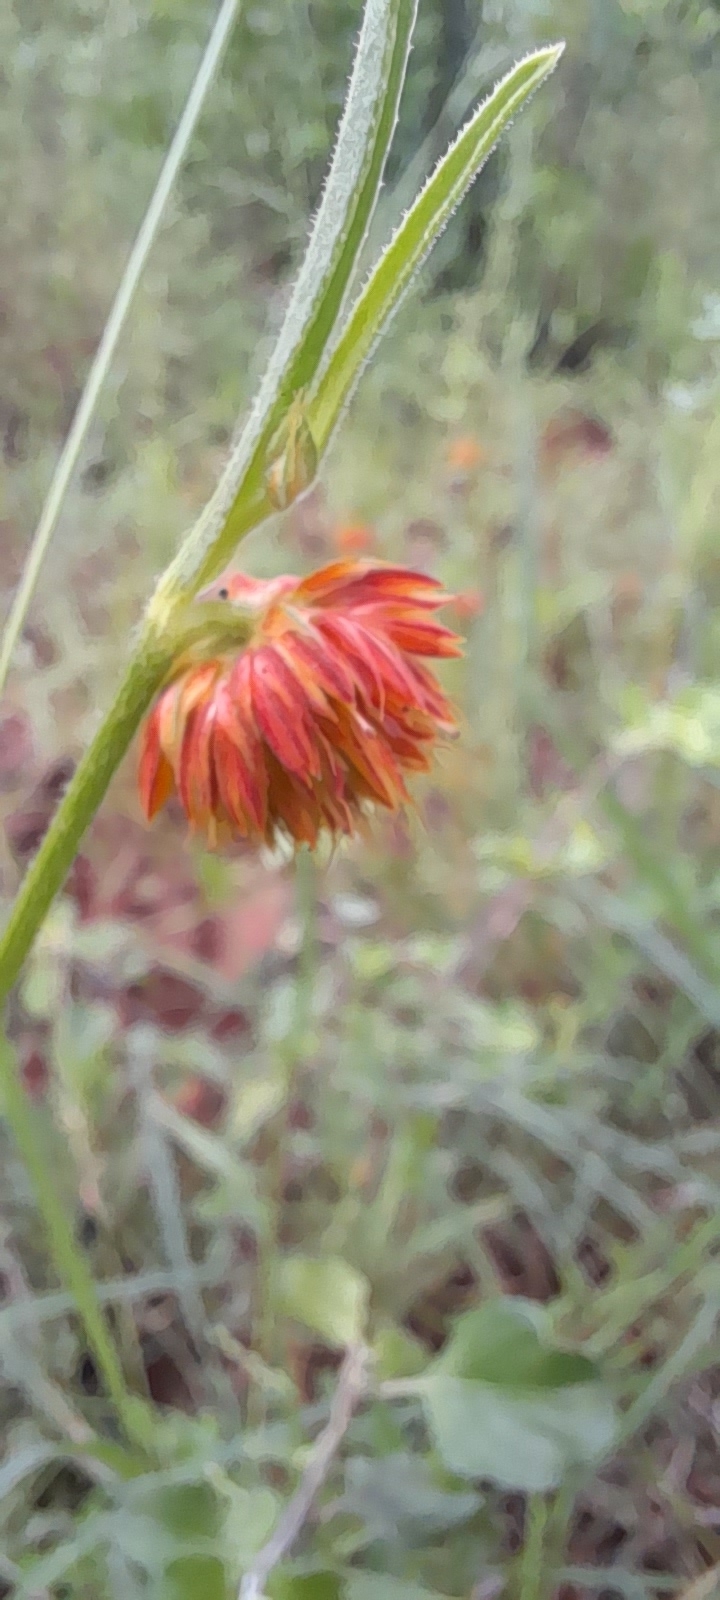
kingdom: Plantae
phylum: Tracheophyta
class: Magnoliopsida
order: Caryophyllales
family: Amaranthaceae
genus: Allmania
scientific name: Allmania nodiflora
